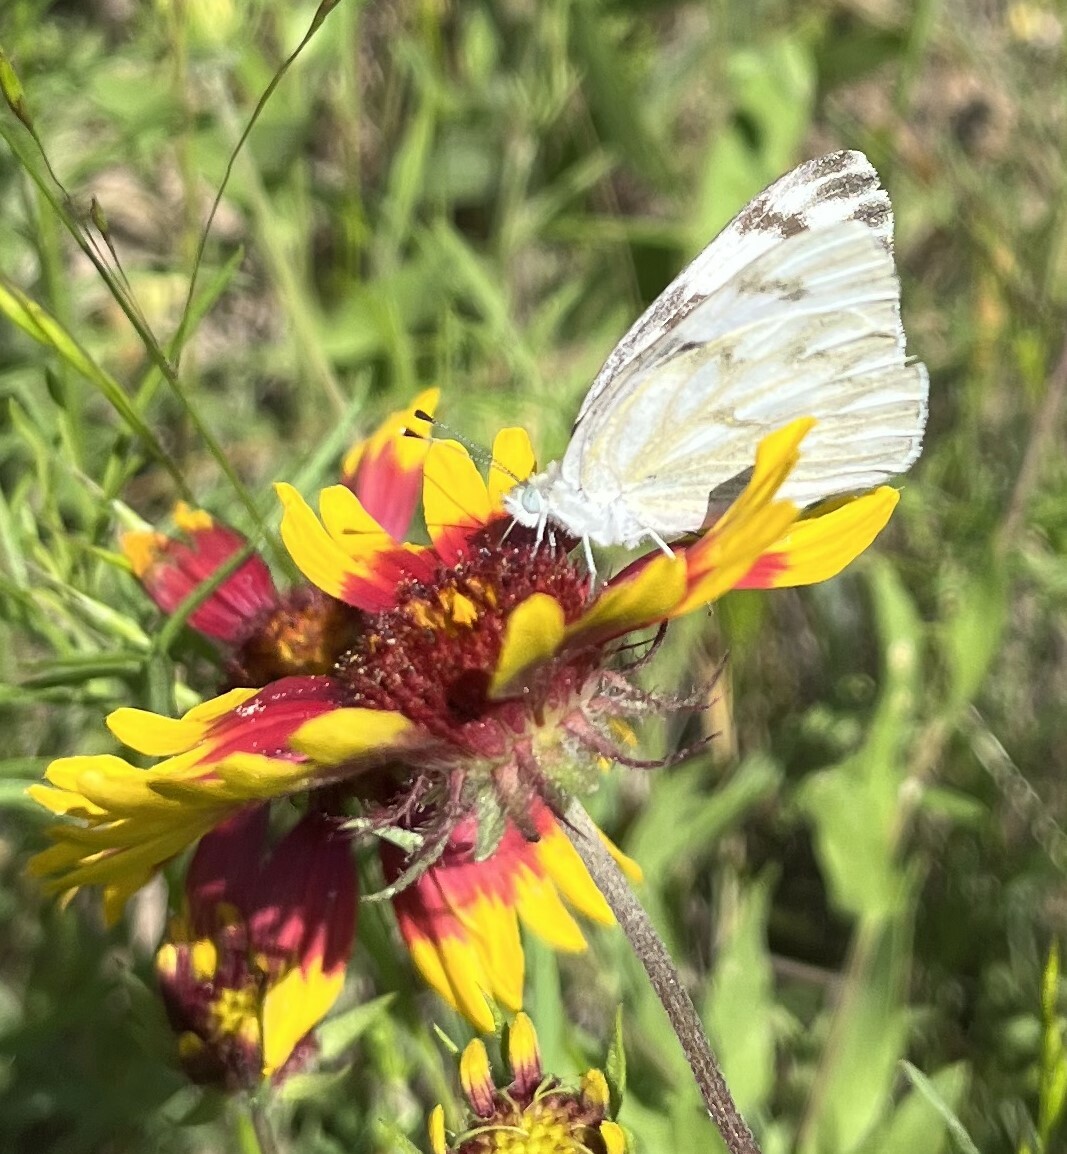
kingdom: Animalia
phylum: Arthropoda
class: Insecta
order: Lepidoptera
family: Pieridae
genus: Pontia
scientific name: Pontia protodice
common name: Checkered white
